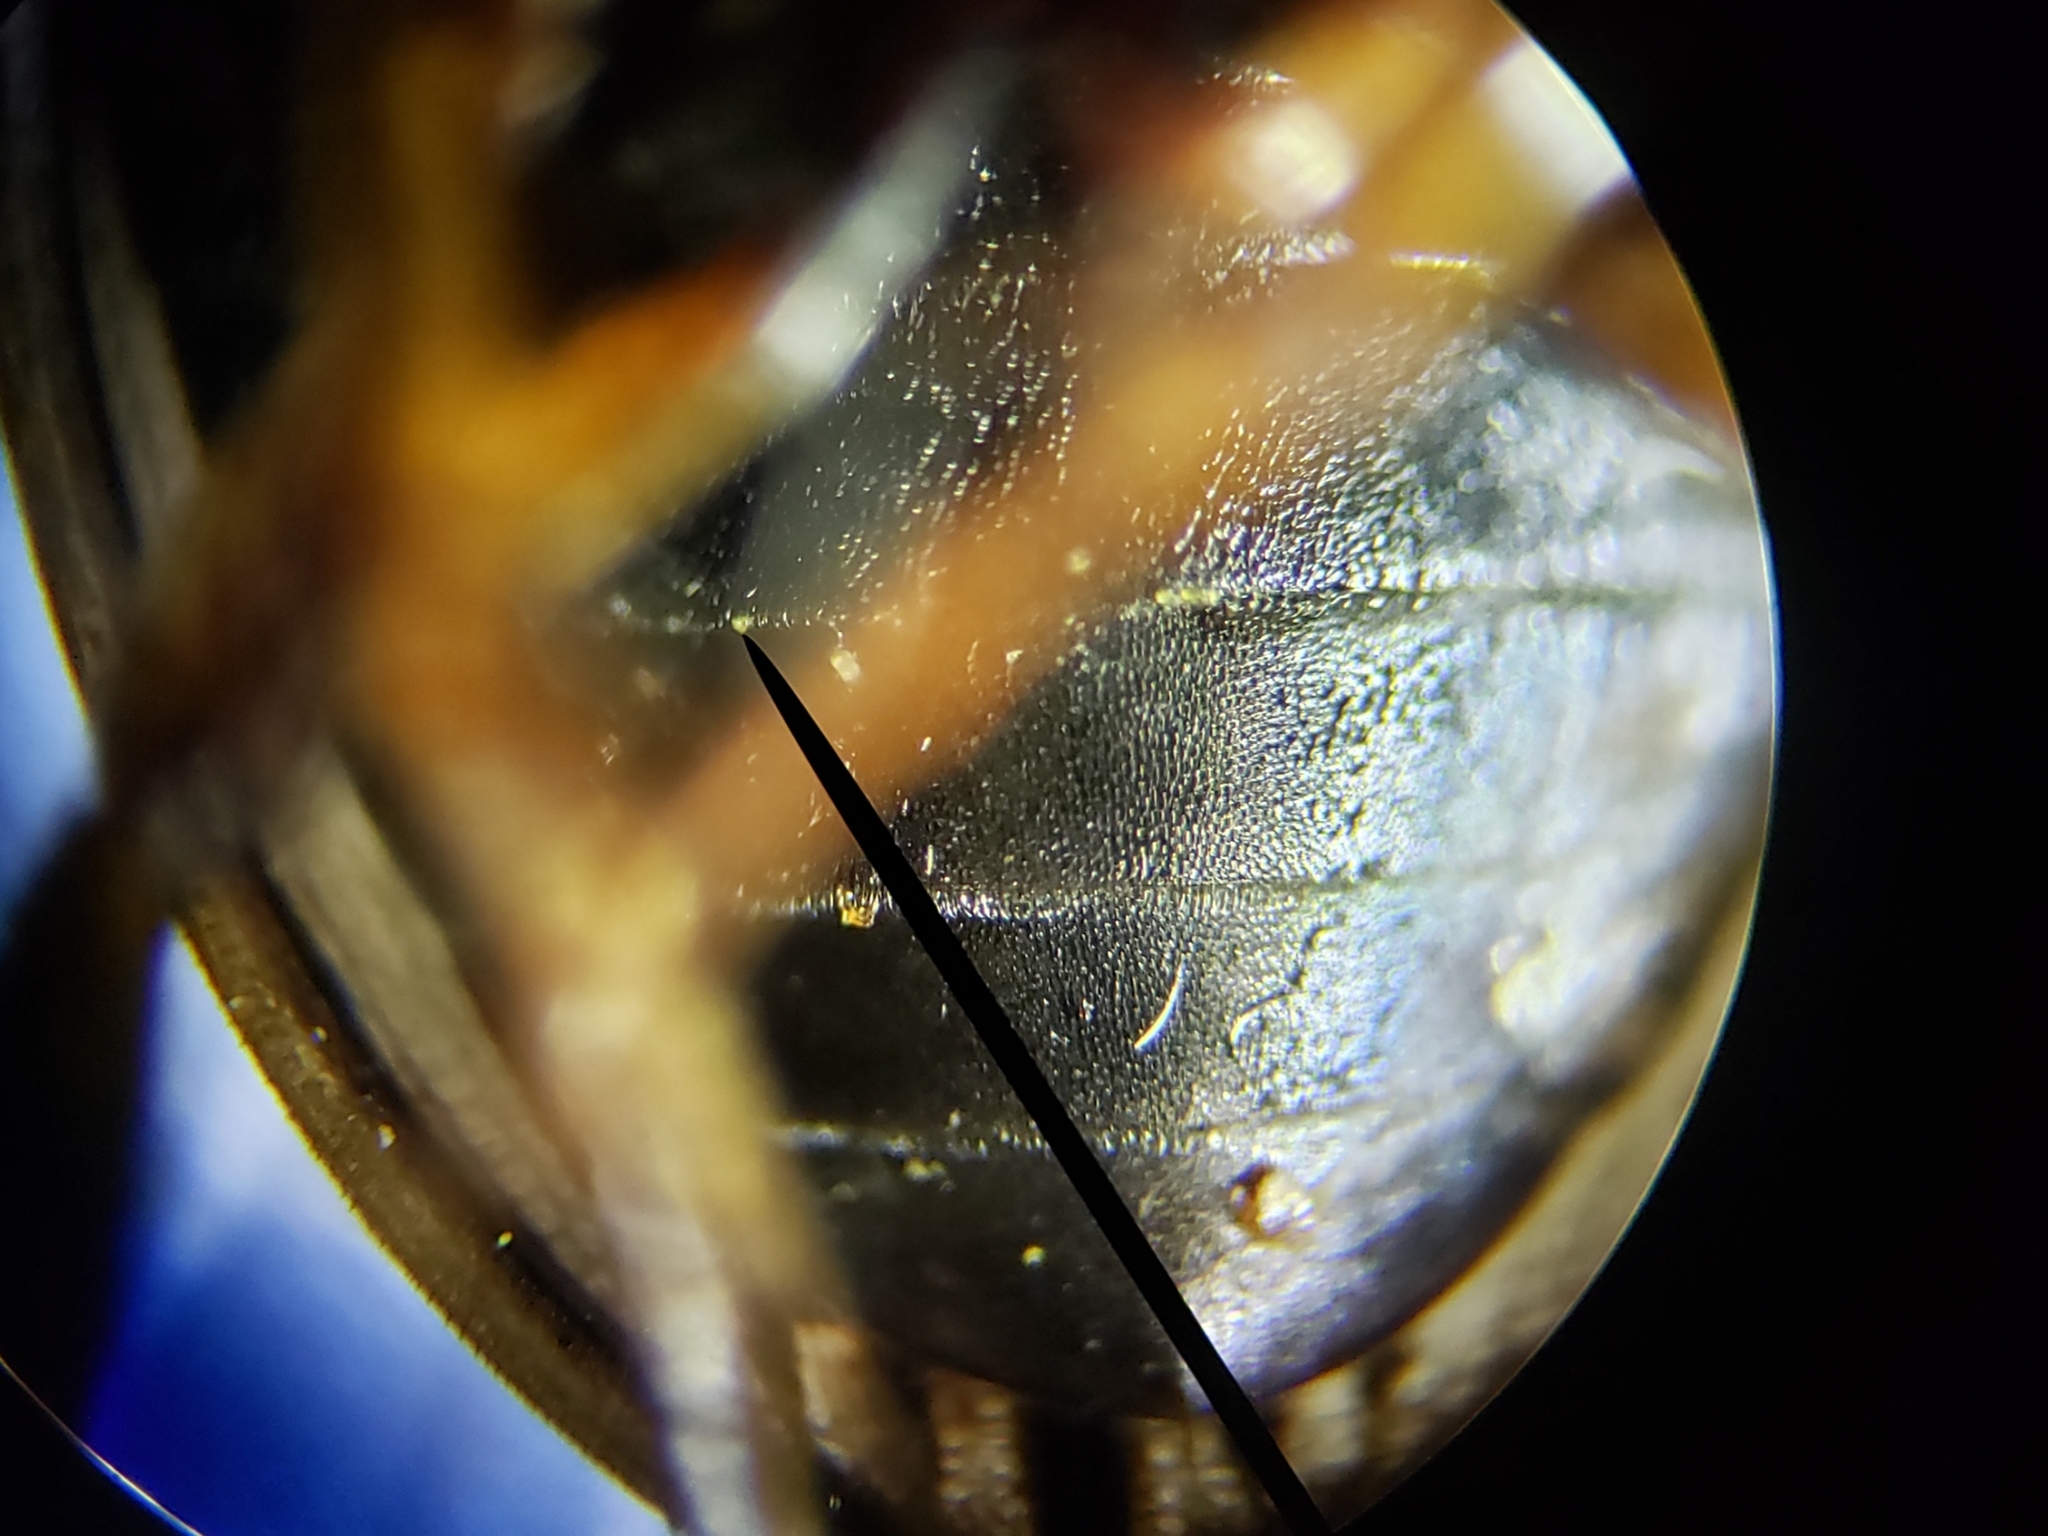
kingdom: Animalia
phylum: Arthropoda
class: Insecta
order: Coleoptera
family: Hydrophilidae
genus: Tropisternus
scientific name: Tropisternus collaris
